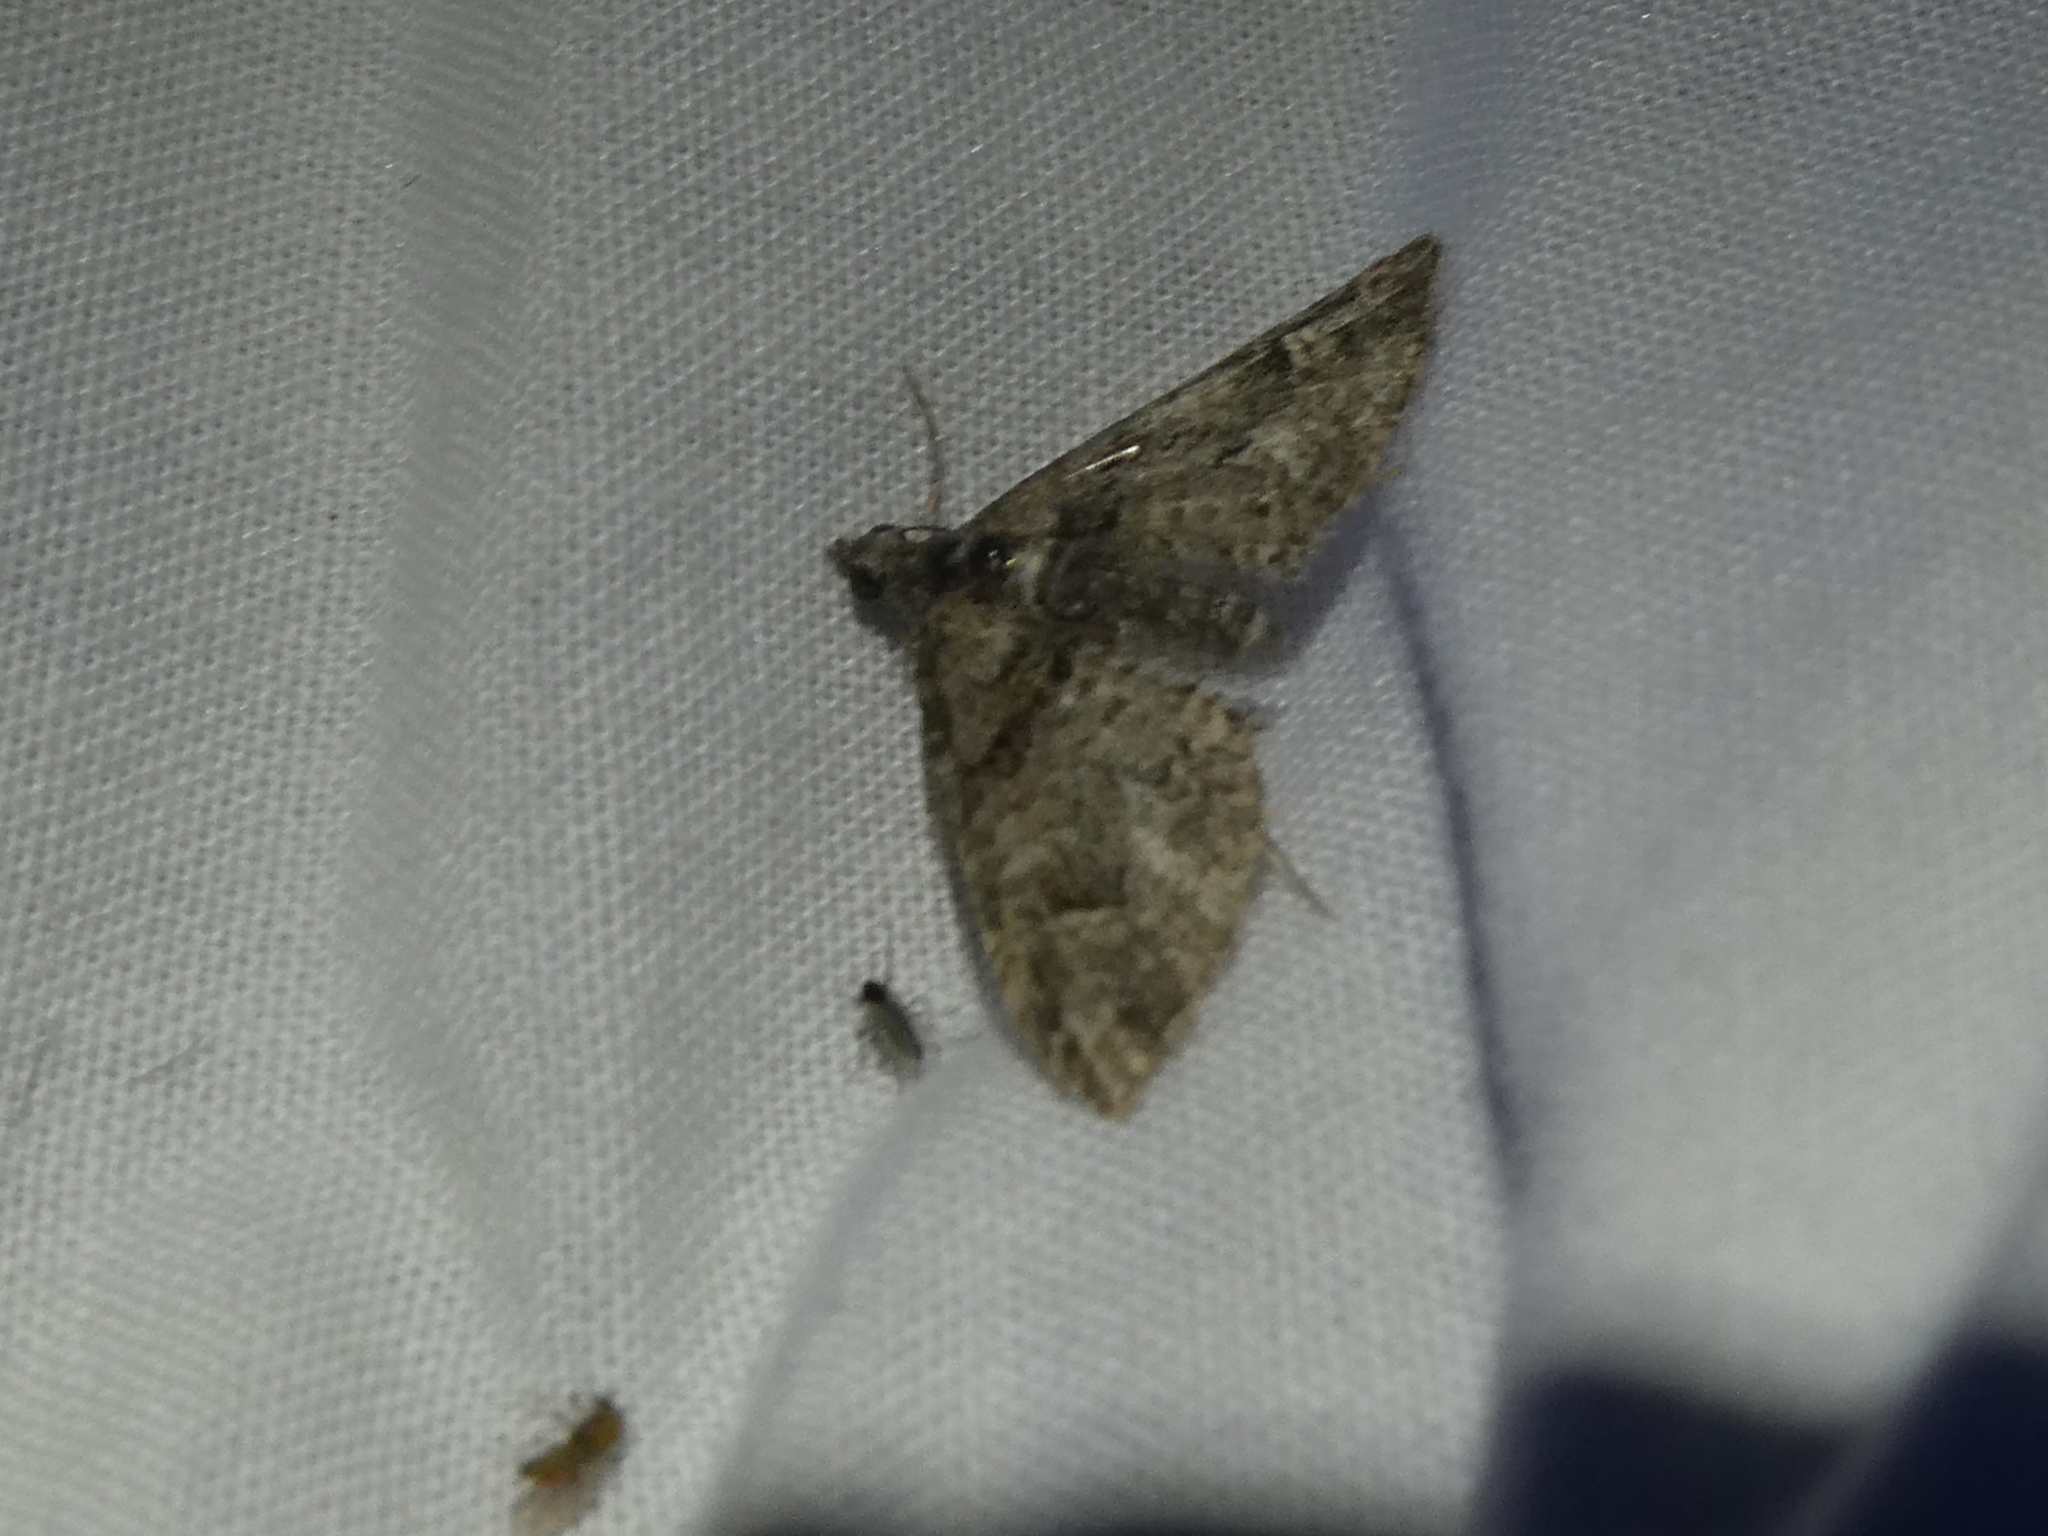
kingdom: Animalia
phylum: Arthropoda
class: Insecta
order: Lepidoptera
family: Geometridae
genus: Phrissogonus
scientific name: Phrissogonus laticostata
